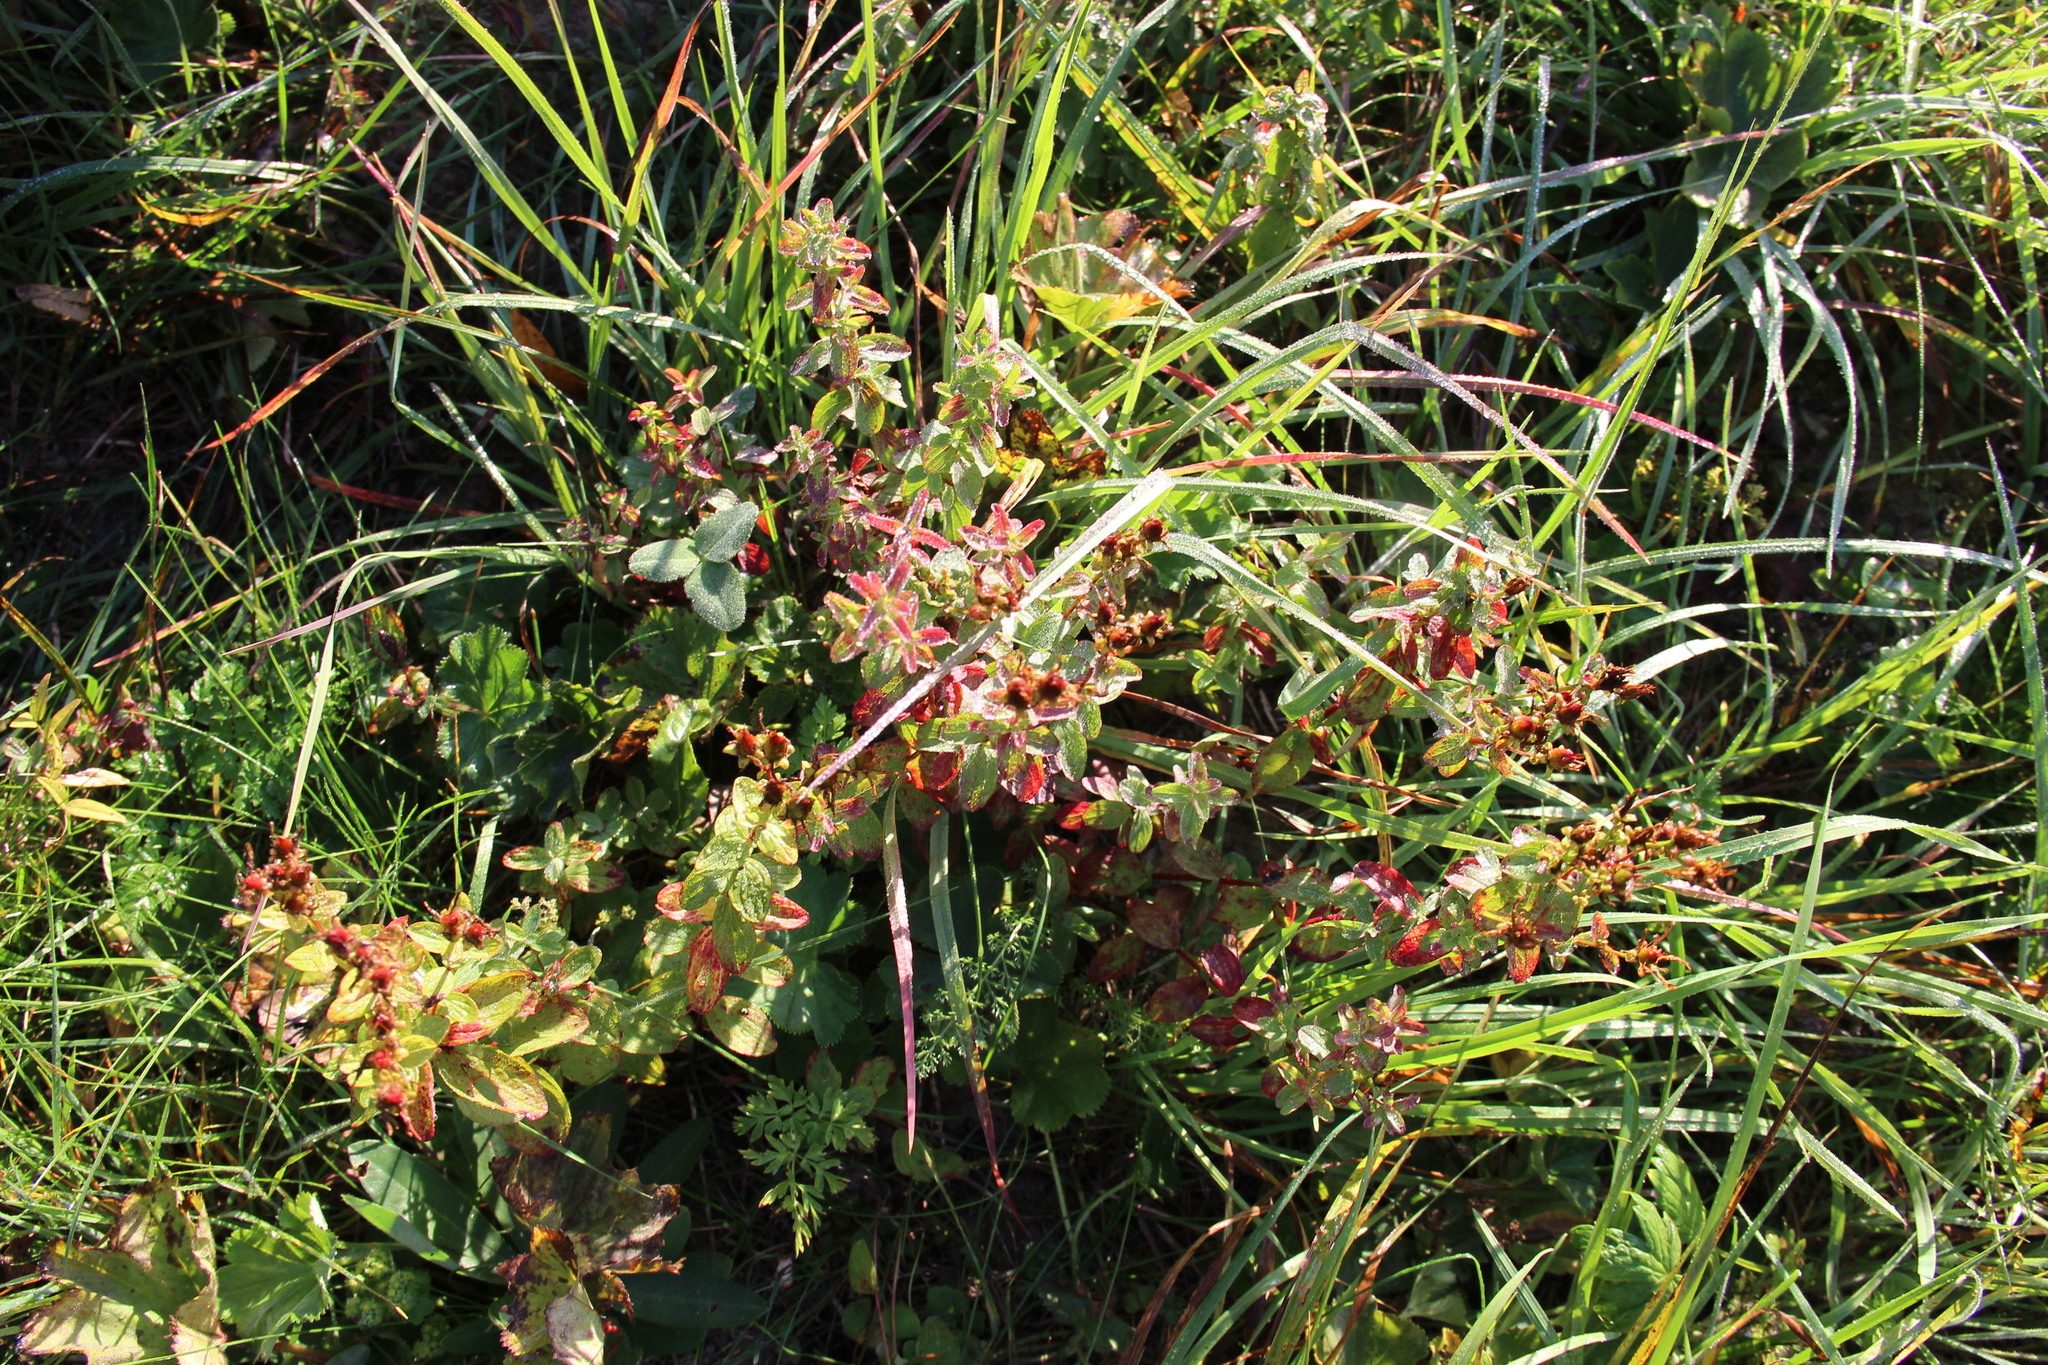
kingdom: Plantae
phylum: Tracheophyta
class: Magnoliopsida
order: Malpighiales
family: Hypericaceae
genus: Hypericum
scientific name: Hypericum maculatum
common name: Imperforate st. john's-wort
